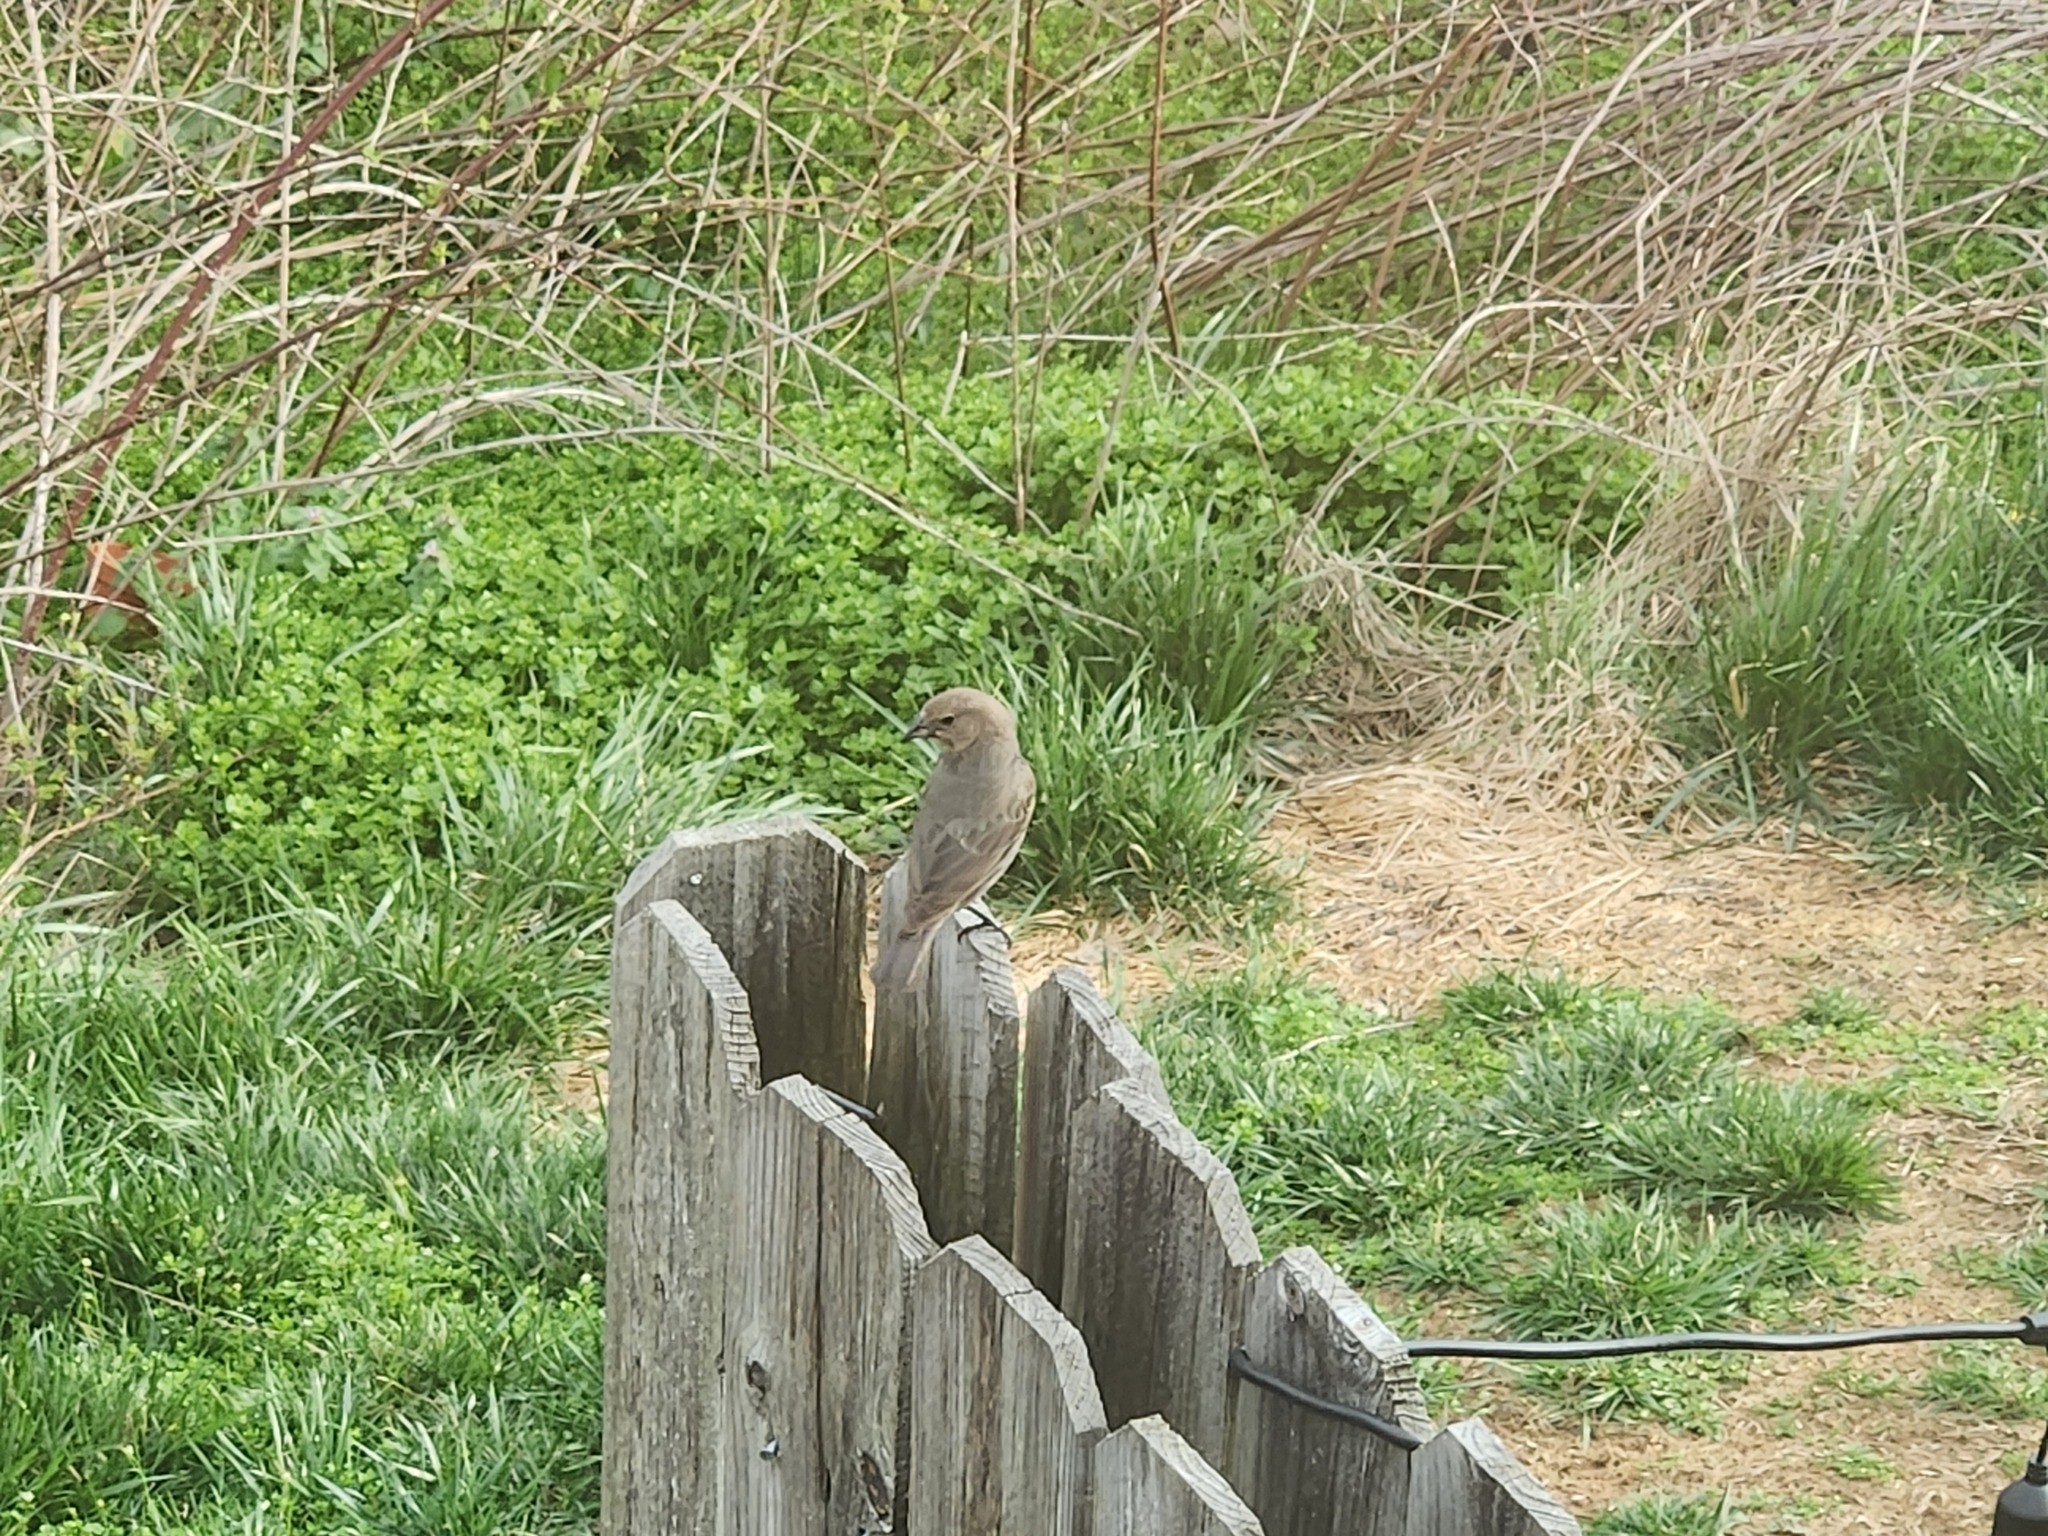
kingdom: Animalia
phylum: Chordata
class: Aves
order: Passeriformes
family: Icteridae
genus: Molothrus
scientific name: Molothrus ater
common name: Brown-headed cowbird
